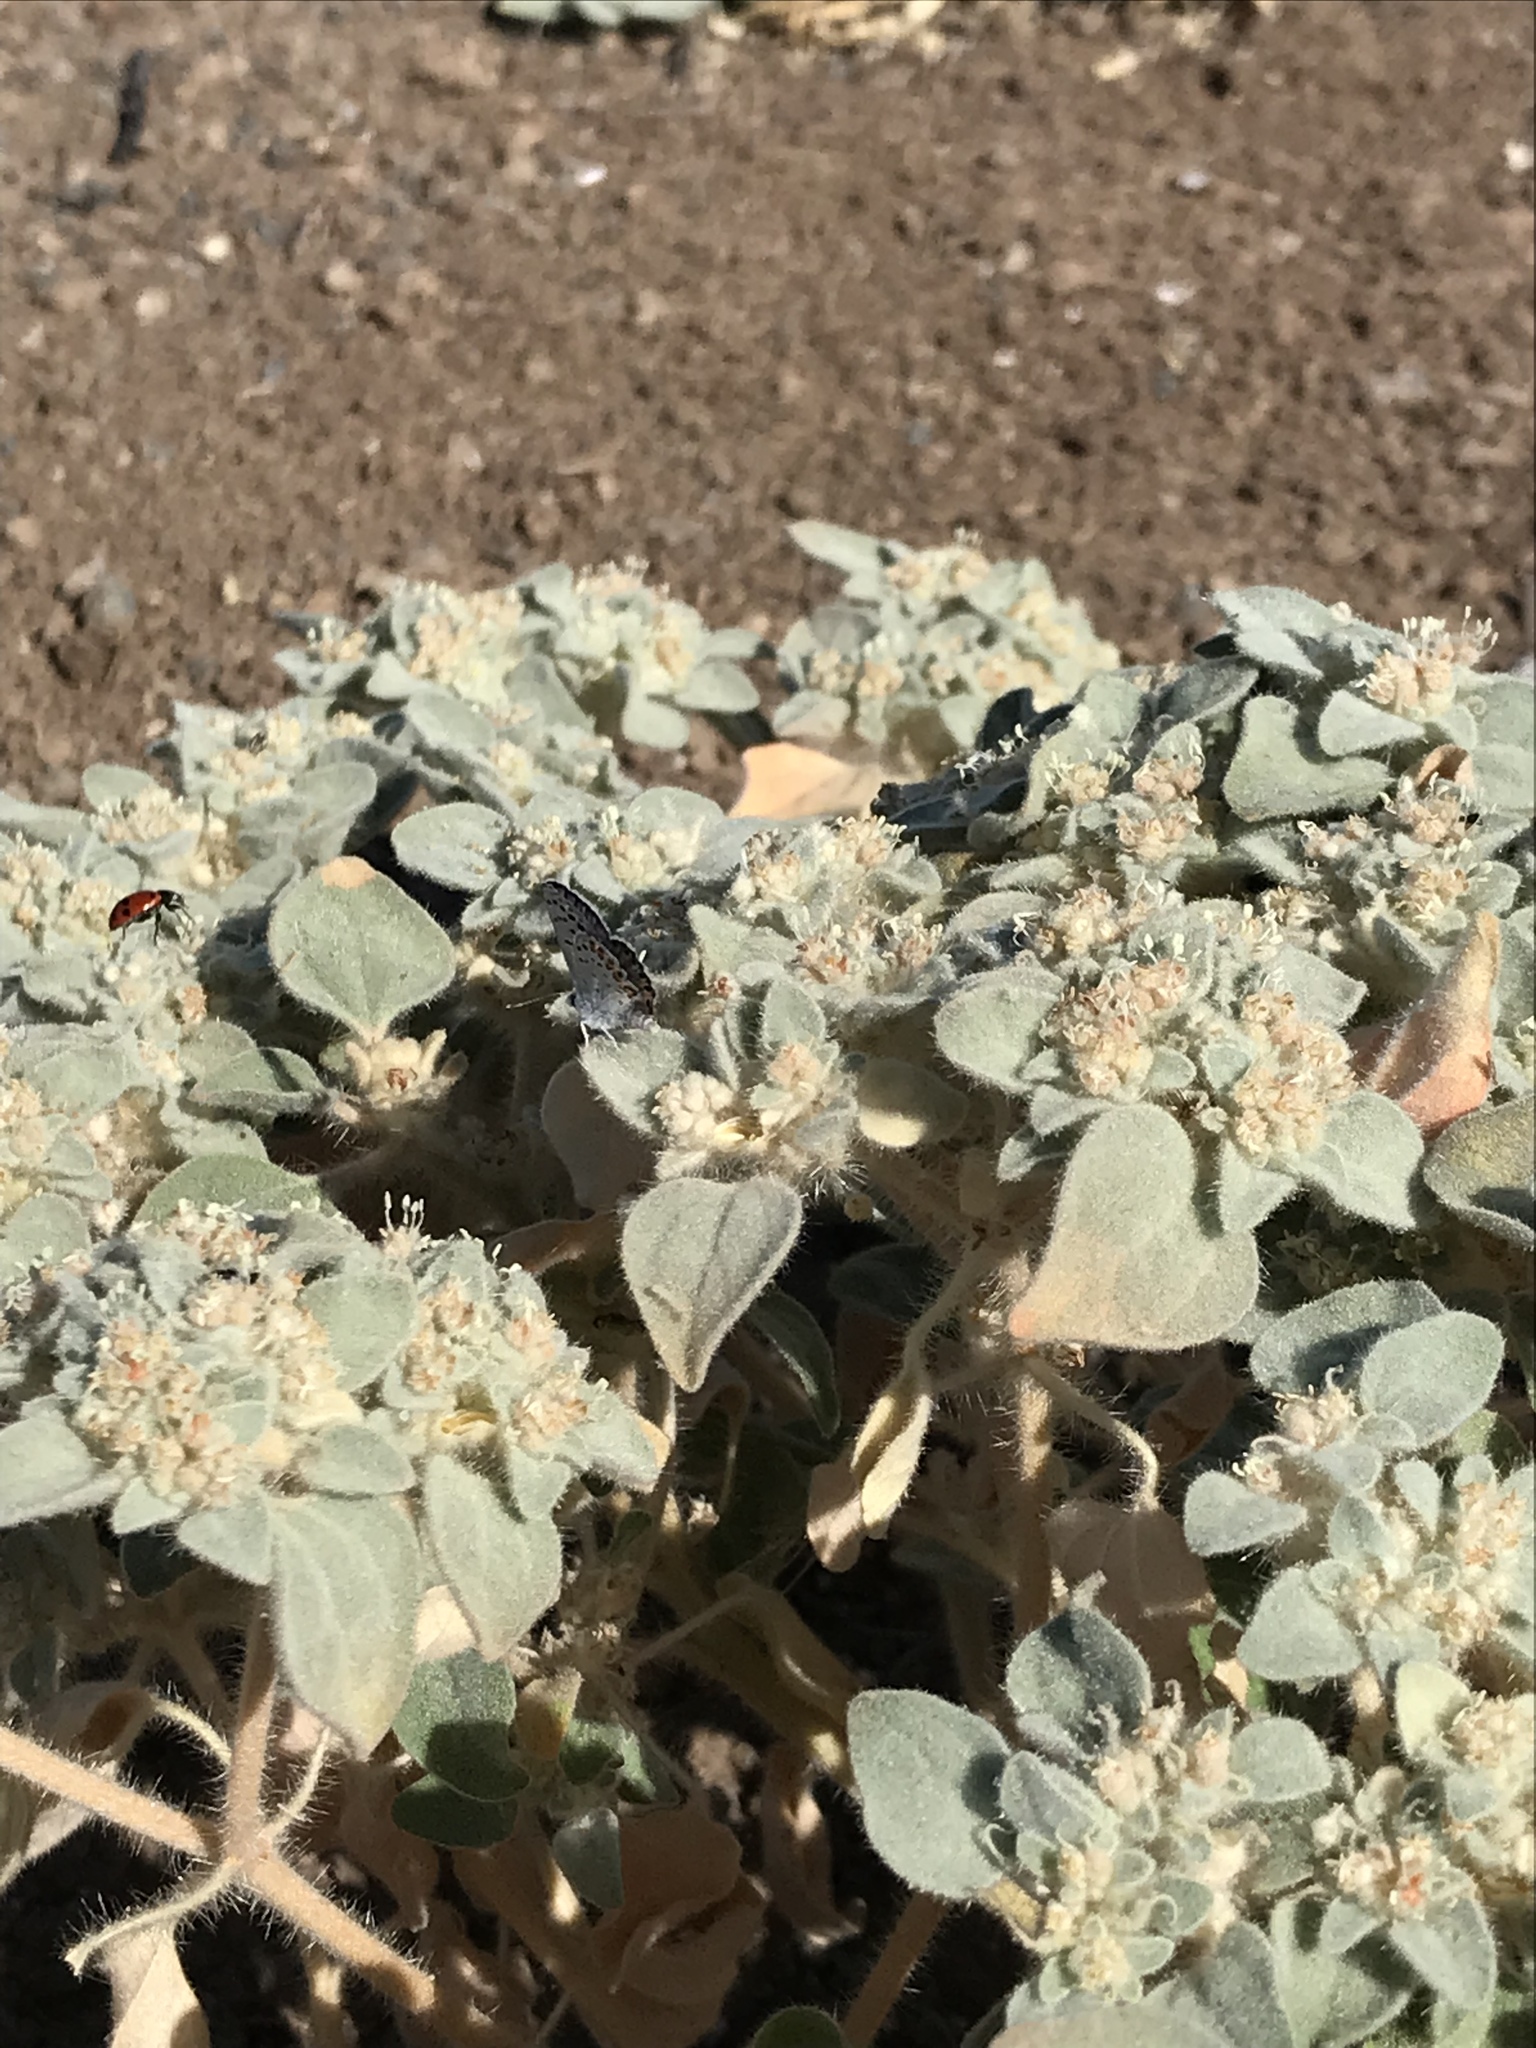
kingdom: Animalia
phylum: Arthropoda
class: Insecta
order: Lepidoptera
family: Lycaenidae
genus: Icaricia
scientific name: Icaricia acmon
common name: Acmon blue
